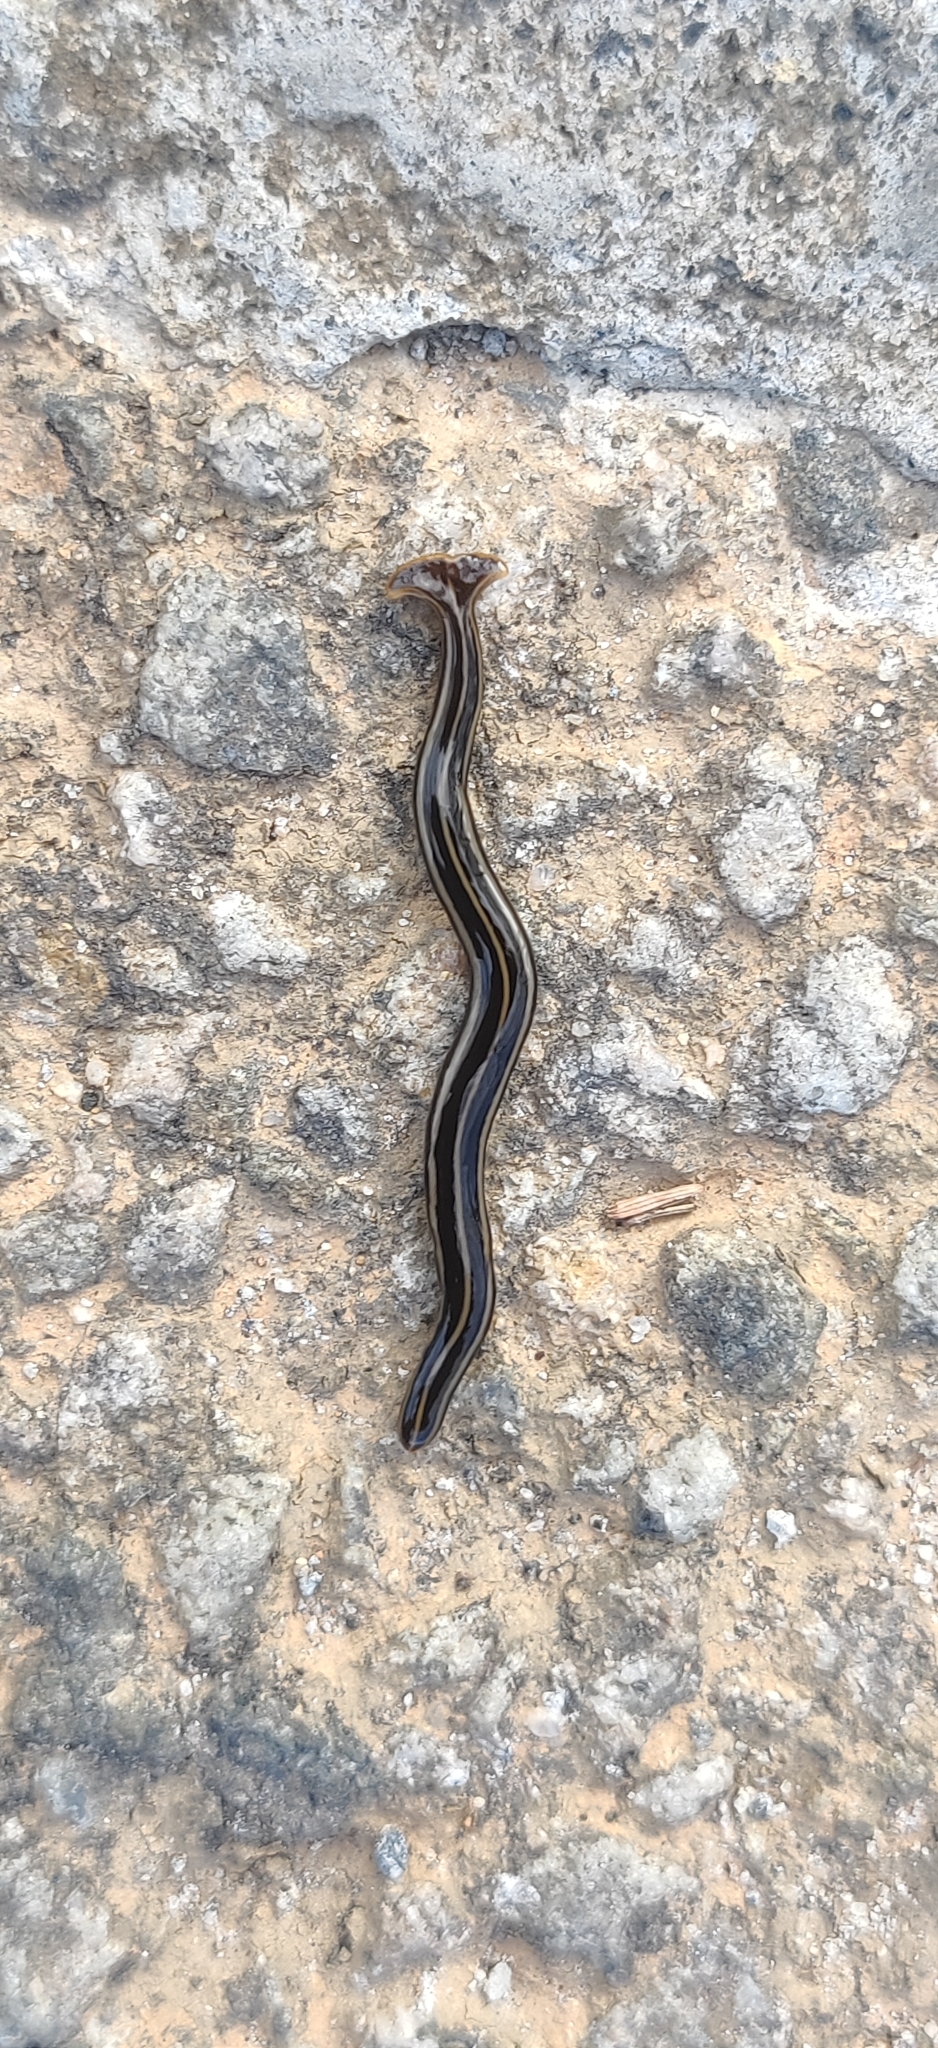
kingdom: Animalia
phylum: Platyhelminthes
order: Tricladida
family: Geoplanidae
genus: Humbertium
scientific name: Humbertium proserpina
